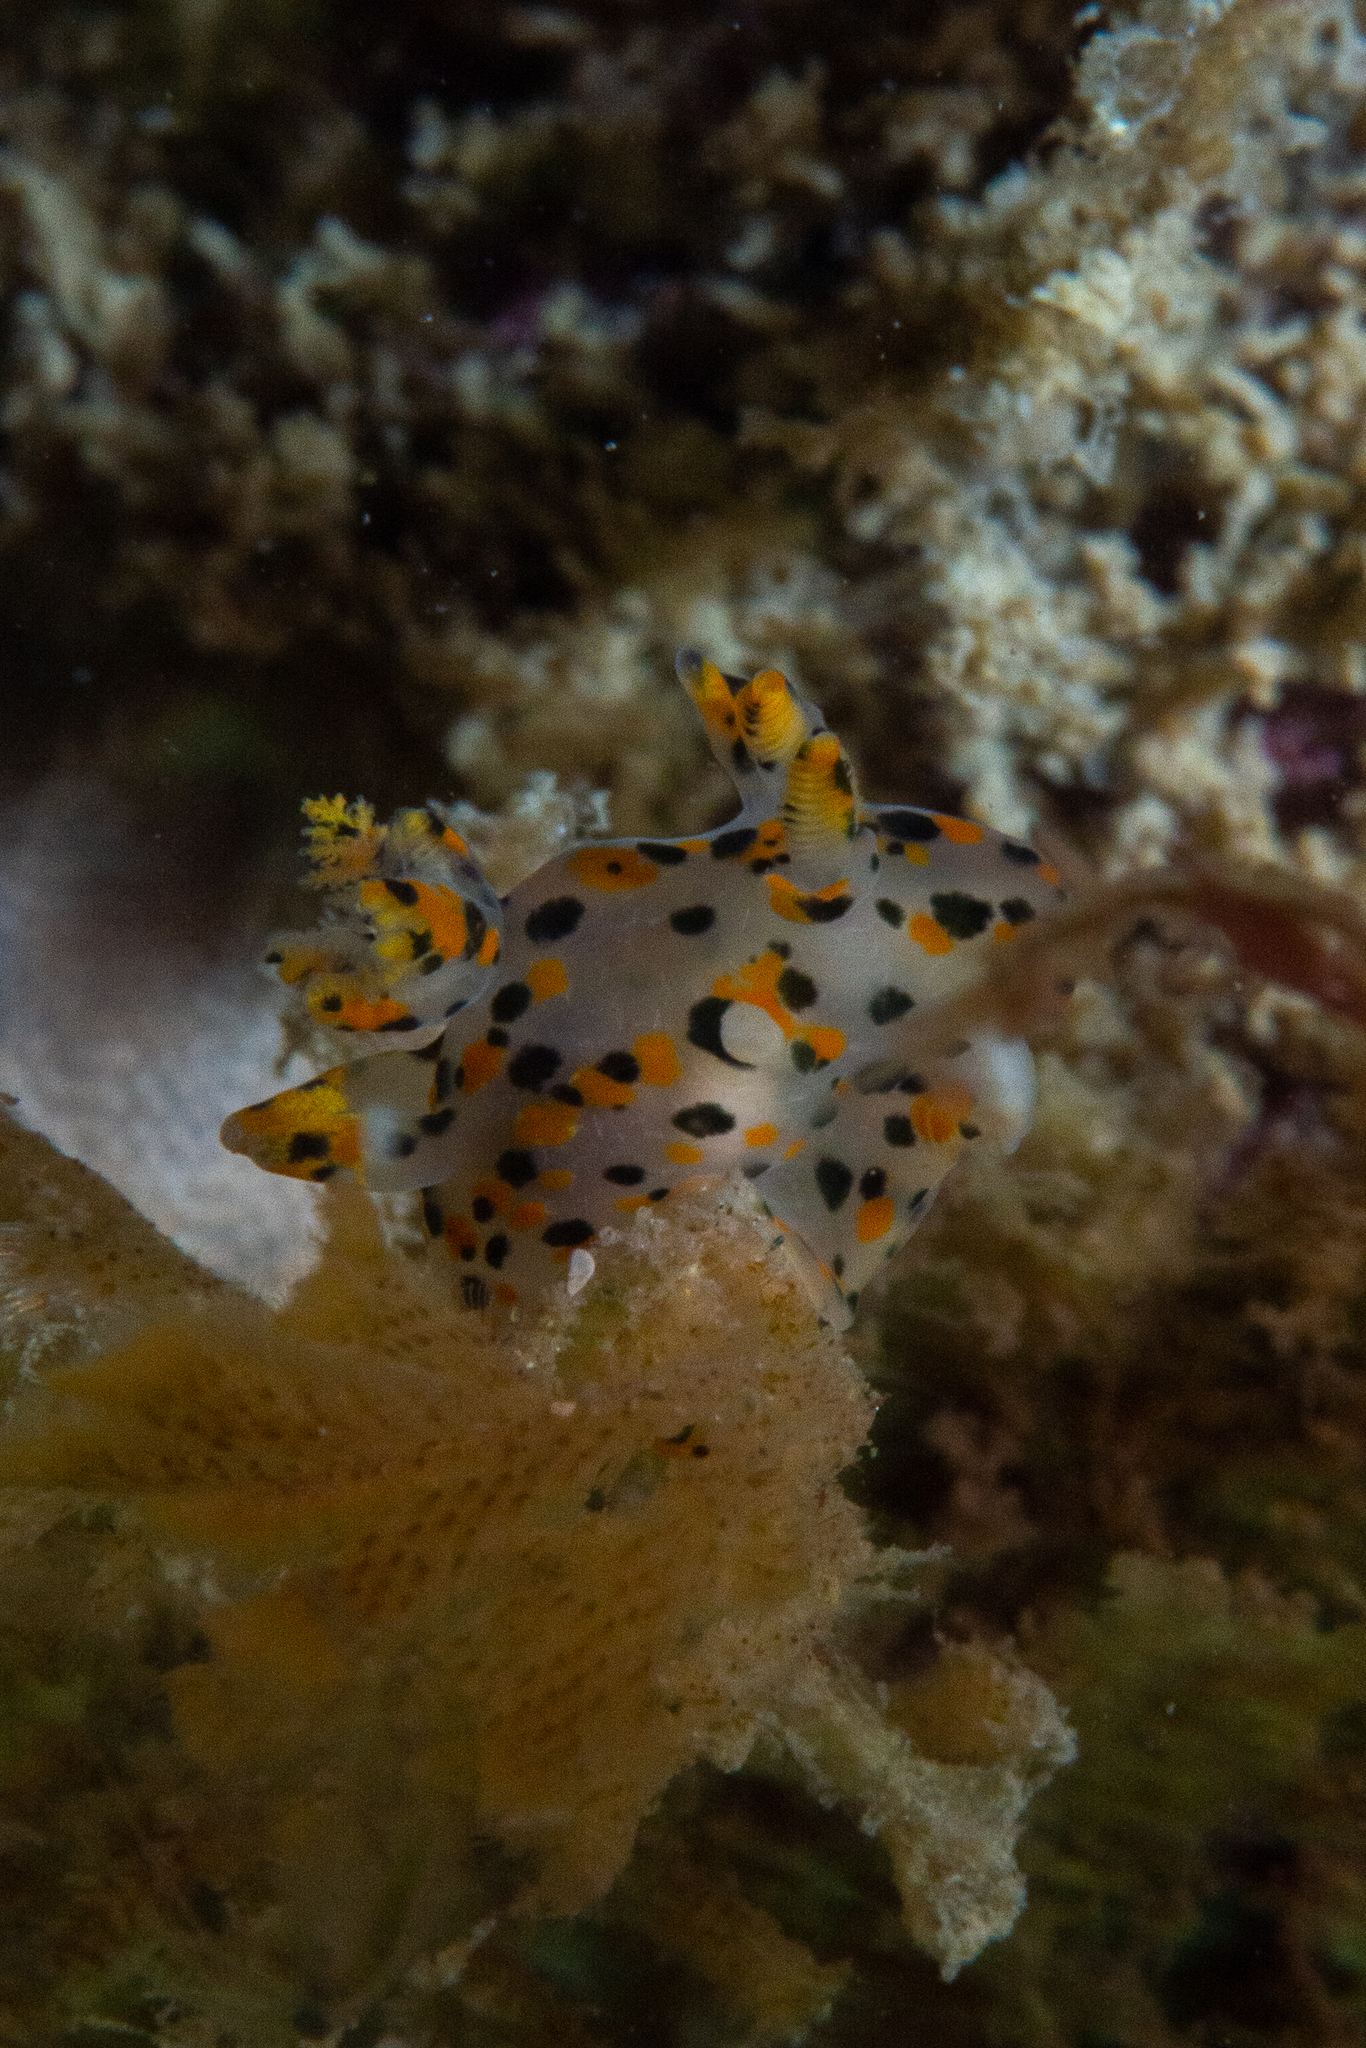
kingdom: Animalia
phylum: Mollusca
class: Gastropoda
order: Nudibranchia
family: Polyceridae
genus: Thecacera
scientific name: Thecacera pennigera
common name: Thecacera
